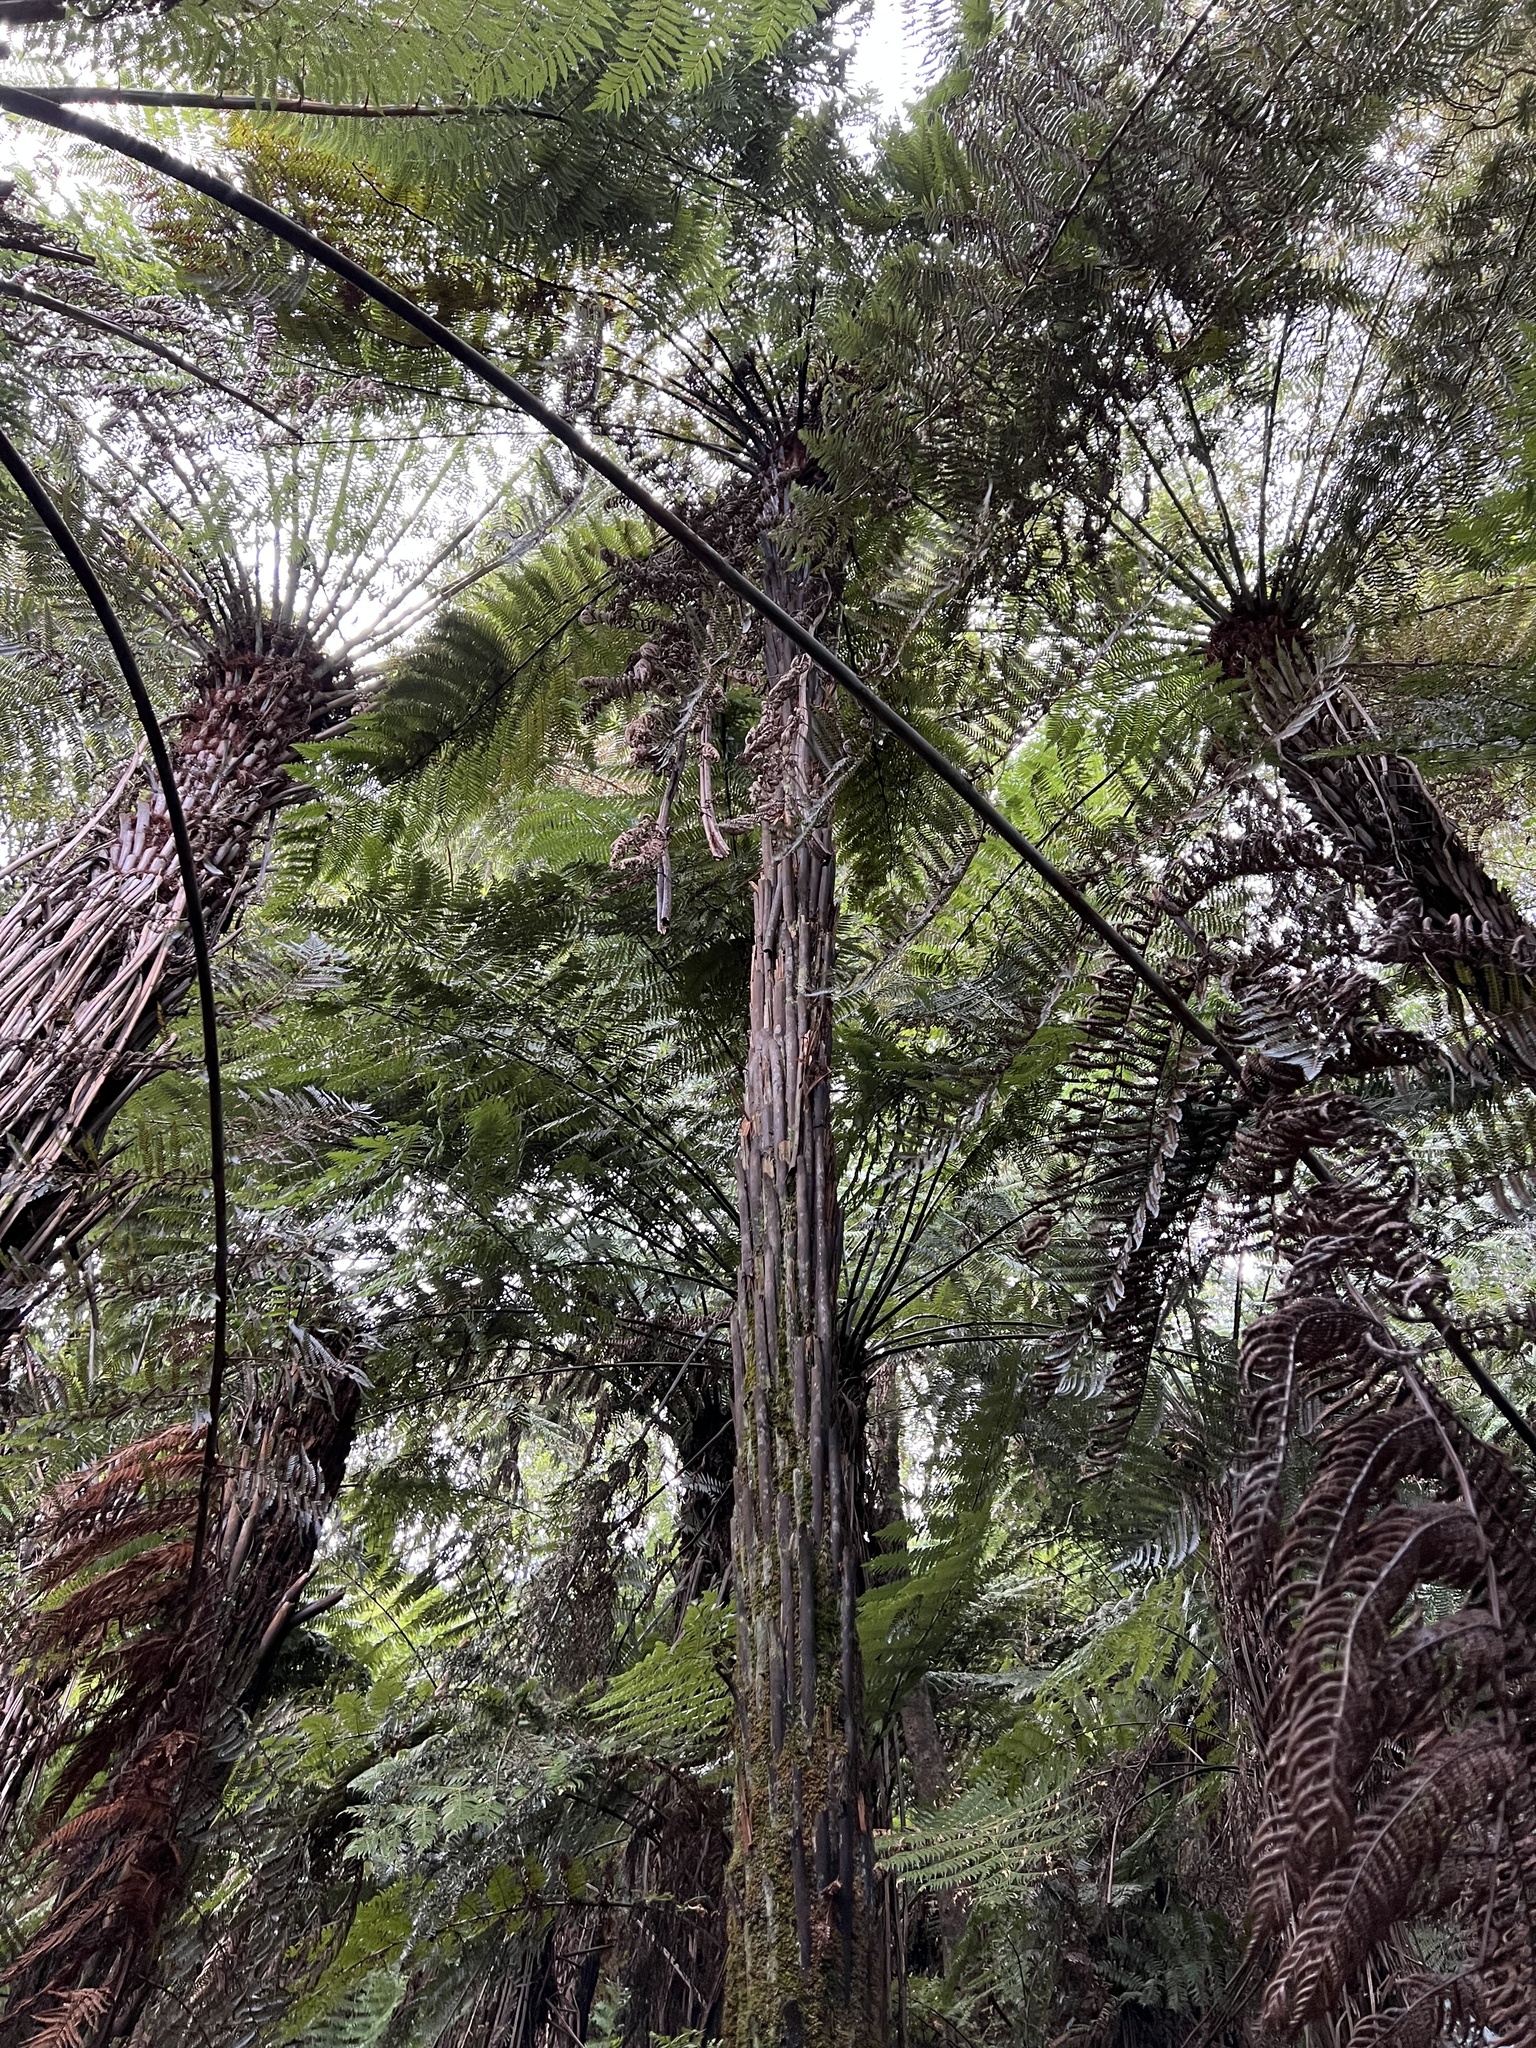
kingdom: Plantae
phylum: Tracheophyta
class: Polypodiopsida
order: Cyatheales
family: Dicksoniaceae
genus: Dicksonia
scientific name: Dicksonia squarrosa
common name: Hard treefern
